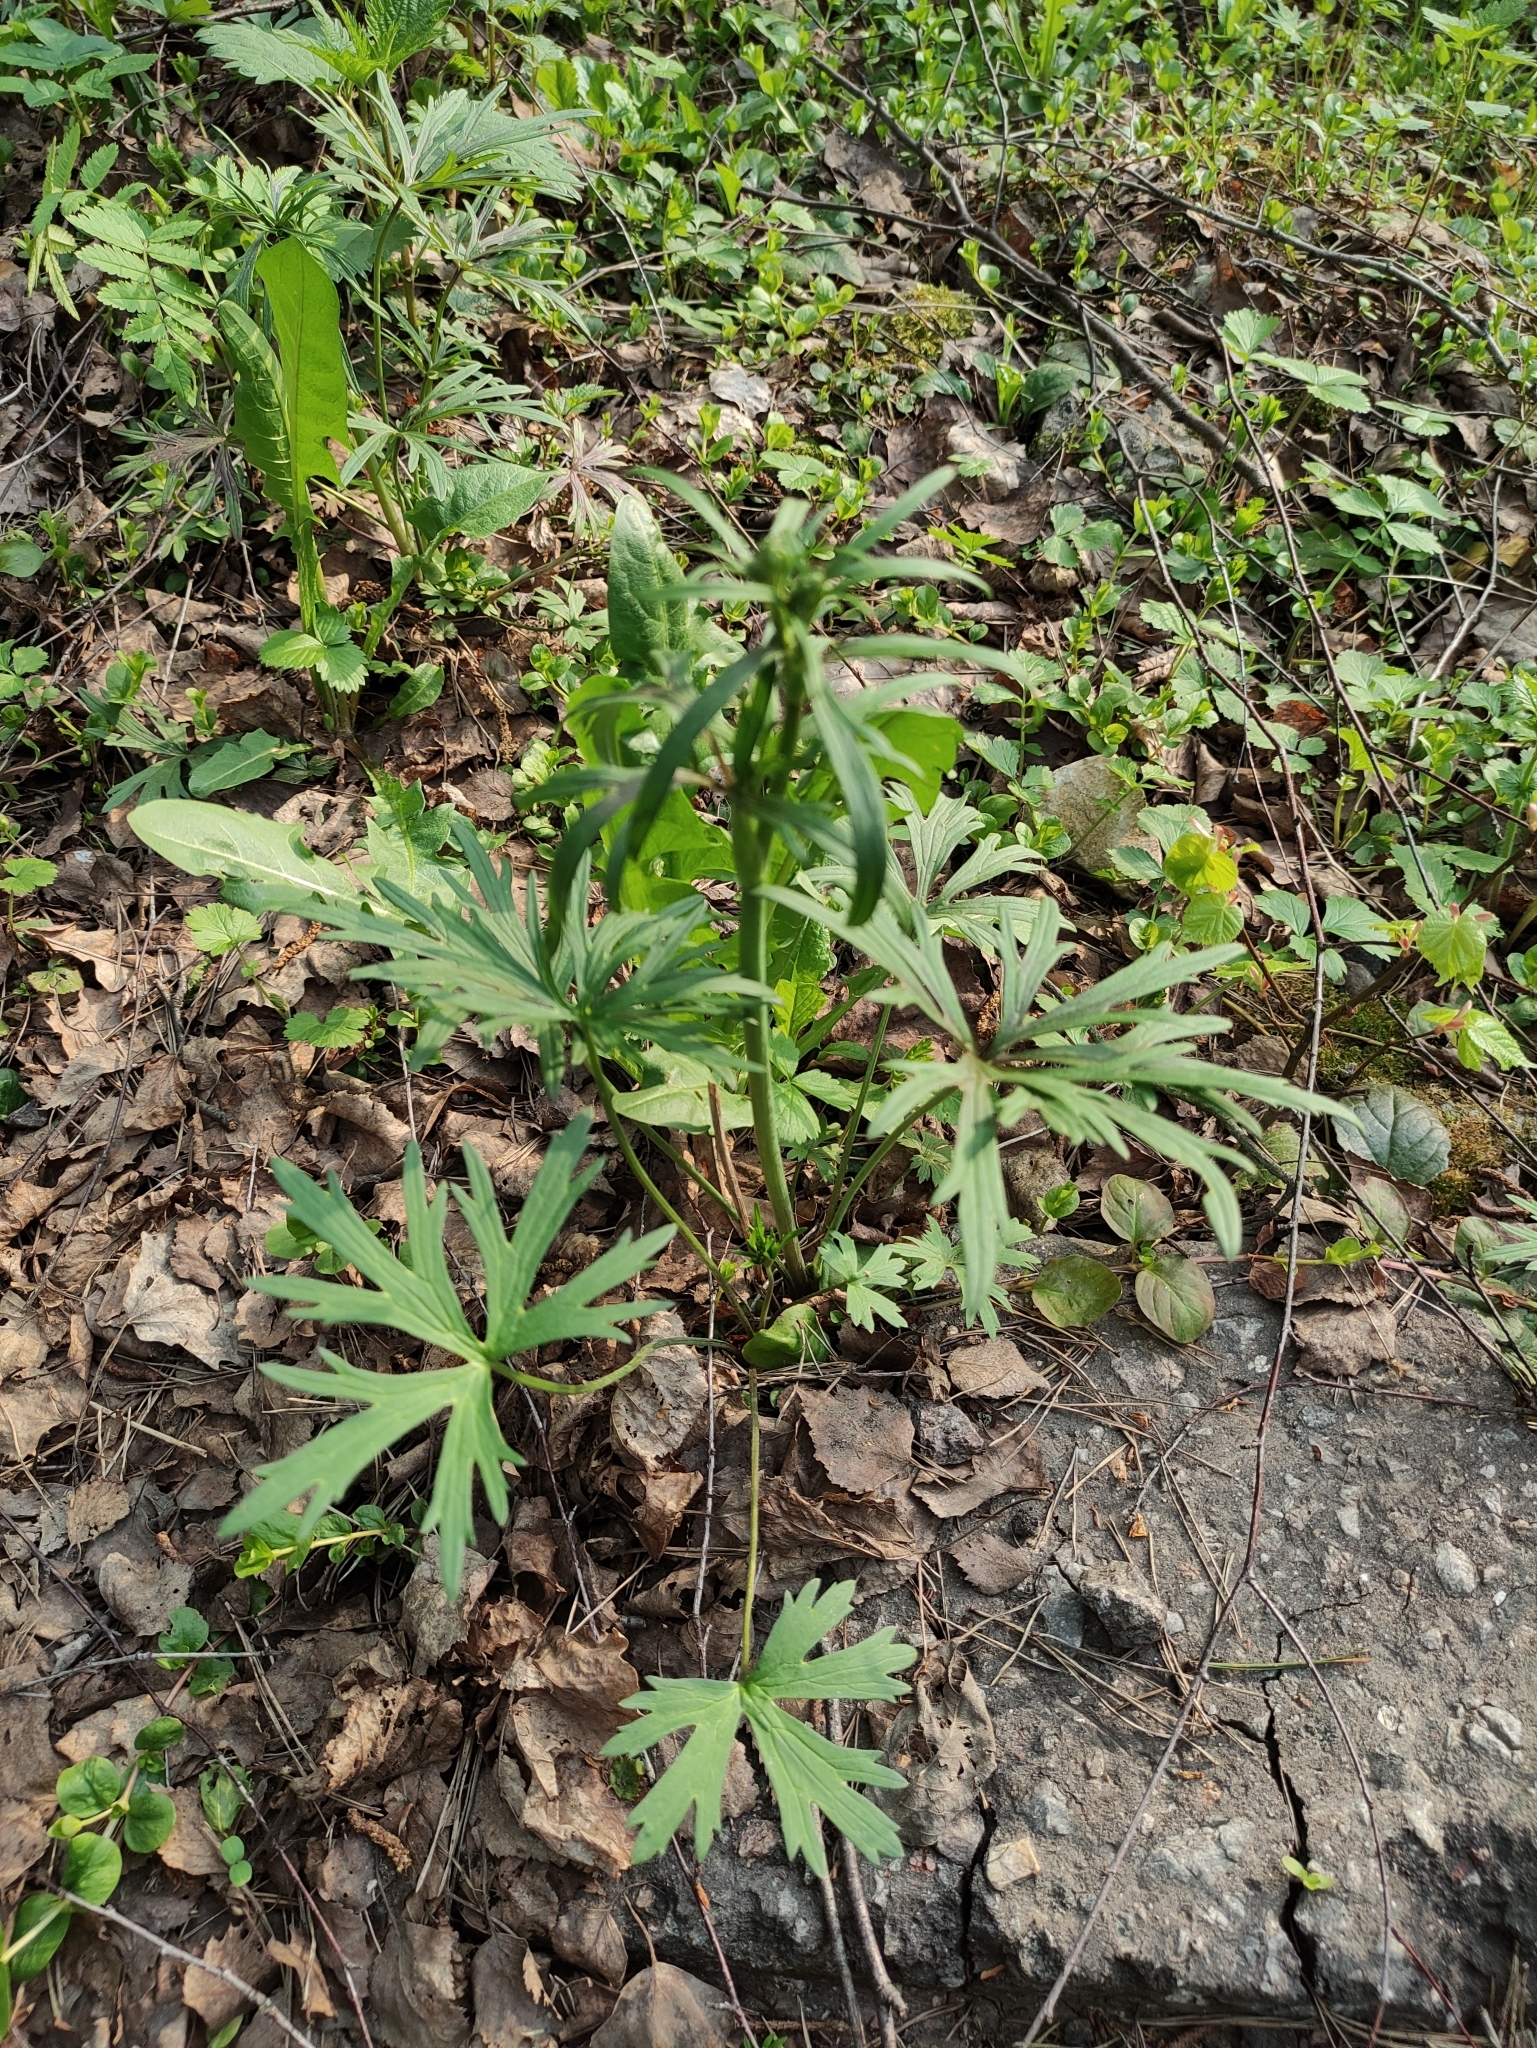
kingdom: Plantae
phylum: Tracheophyta
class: Magnoliopsida
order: Ranunculales
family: Ranunculaceae
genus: Ranunculus
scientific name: Ranunculus acris
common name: Meadow buttercup
